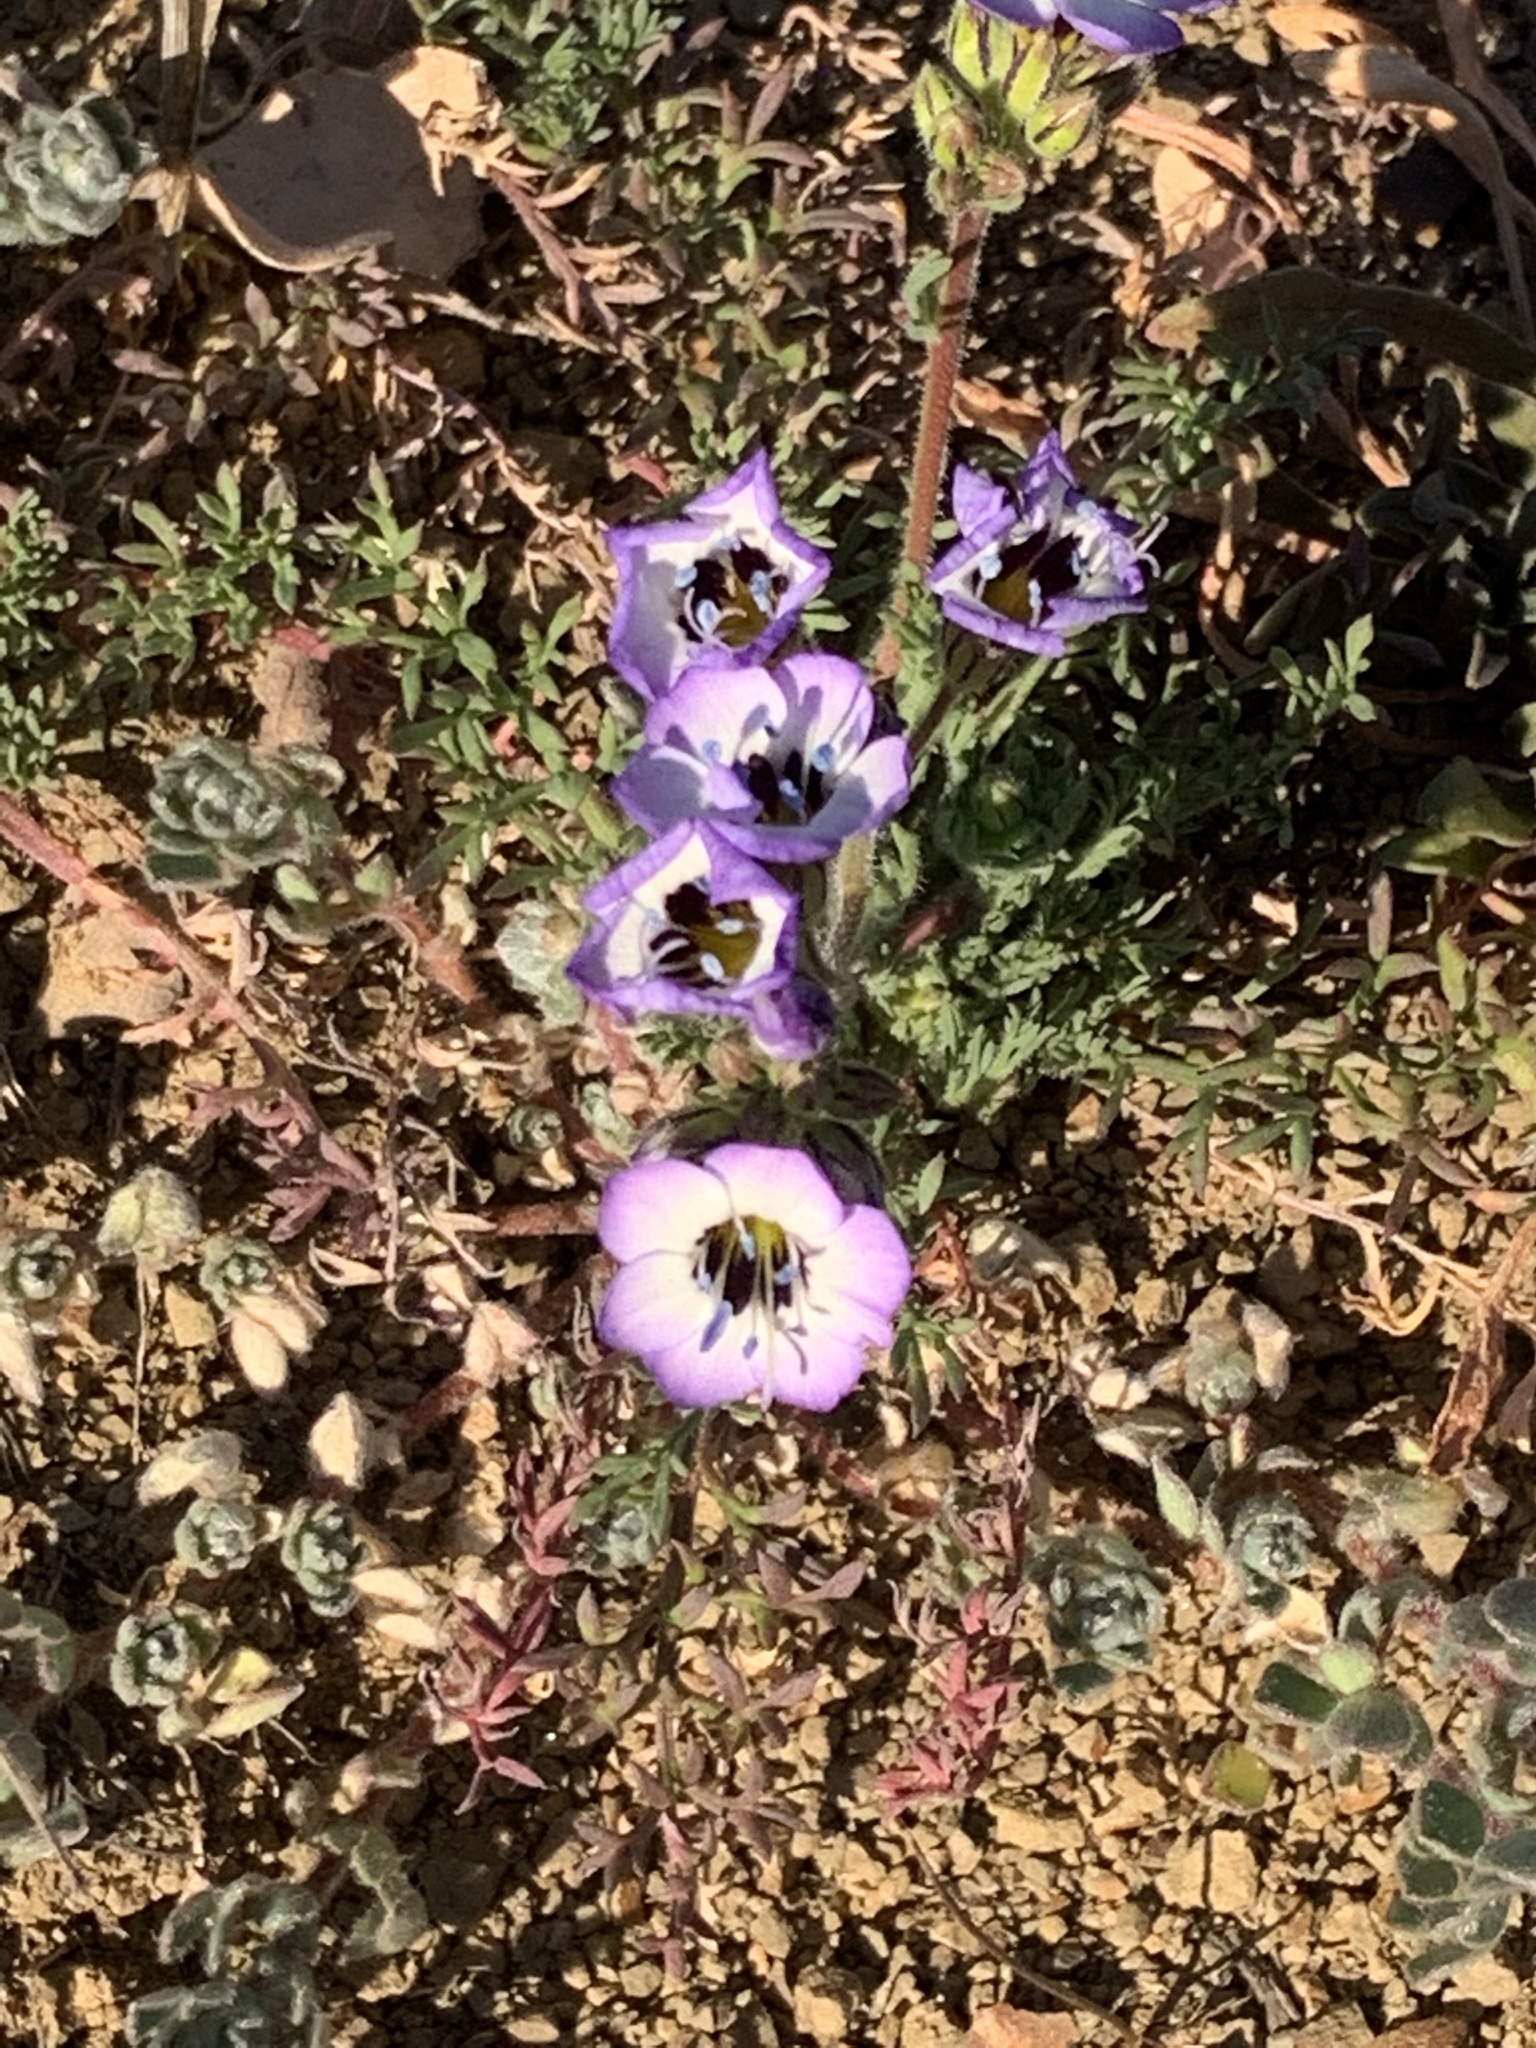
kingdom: Plantae
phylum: Tracheophyta
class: Magnoliopsida
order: Ericales
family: Polemoniaceae
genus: Gilia
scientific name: Gilia tricolor
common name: Bird's-eyes
